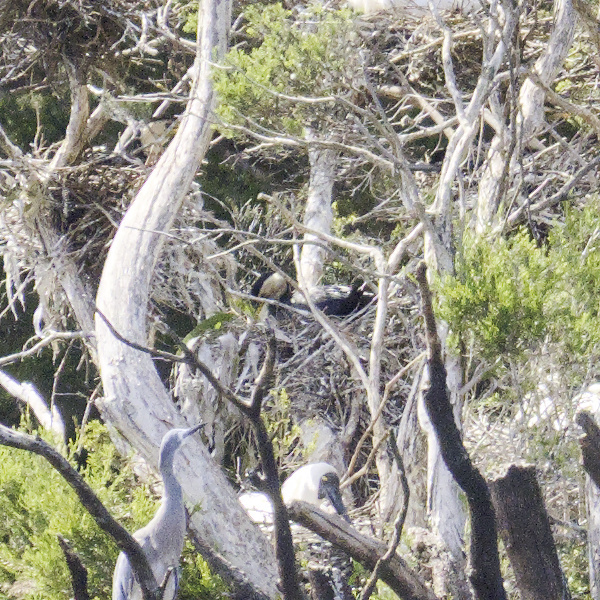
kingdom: Animalia
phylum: Chordata
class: Aves
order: Suliformes
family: Phalacrocoracidae
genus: Microcarbo
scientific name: Microcarbo melanoleucos
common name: Little pied cormorant
